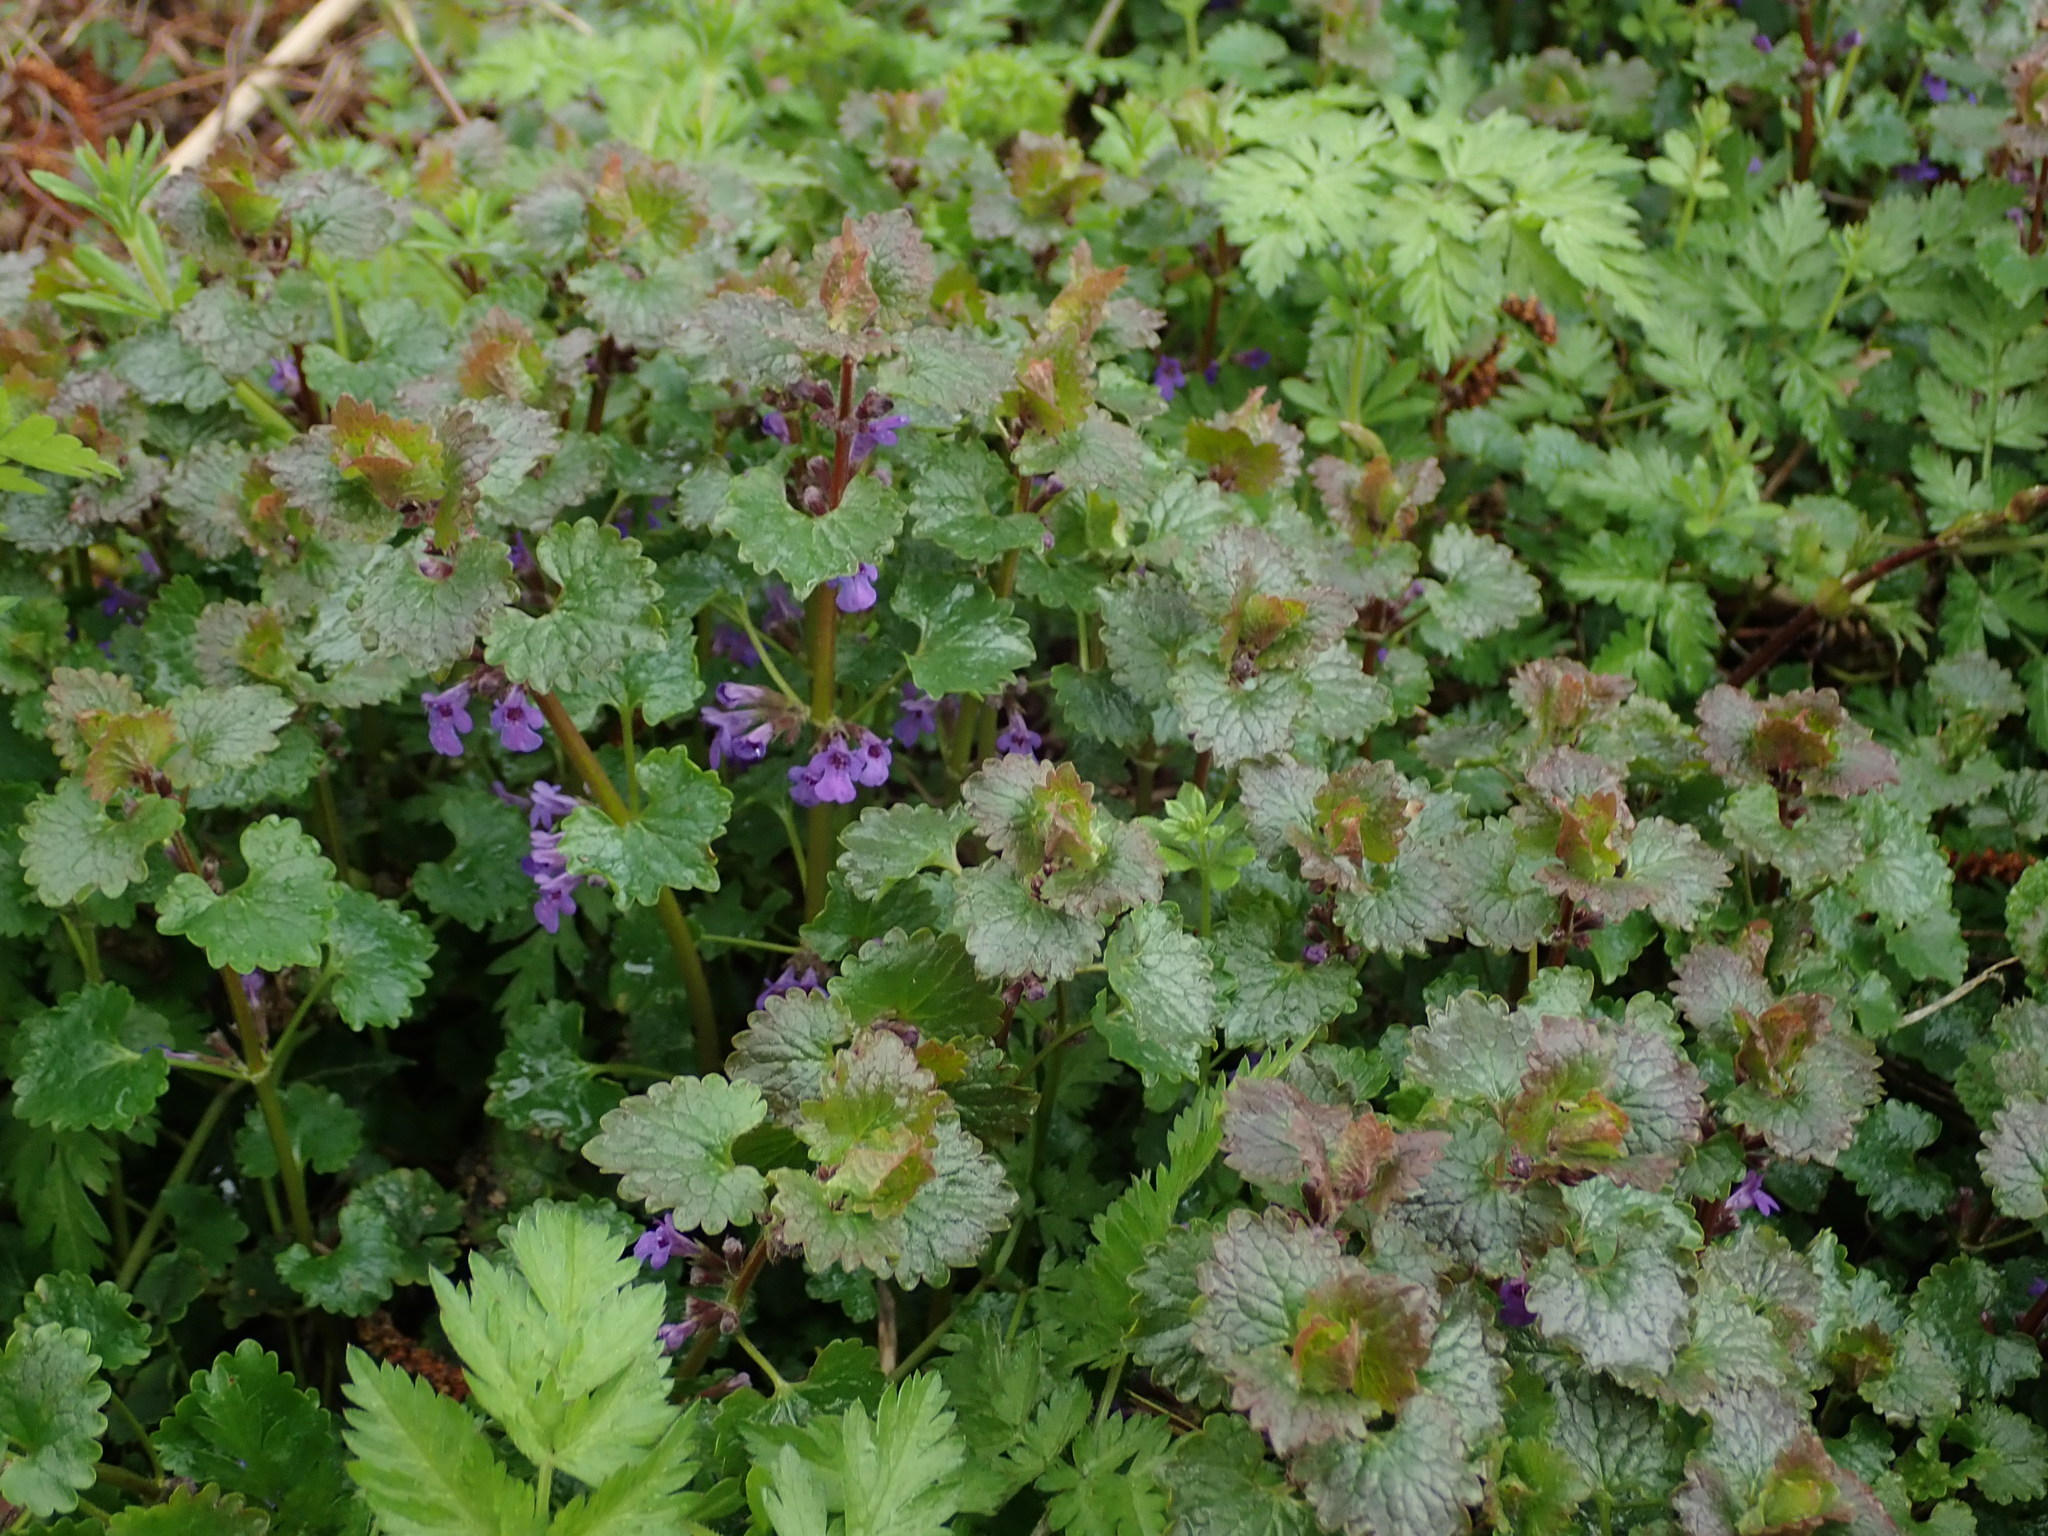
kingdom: Plantae
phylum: Tracheophyta
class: Magnoliopsida
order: Lamiales
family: Lamiaceae
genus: Glechoma
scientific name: Glechoma hederacea
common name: Ground ivy
